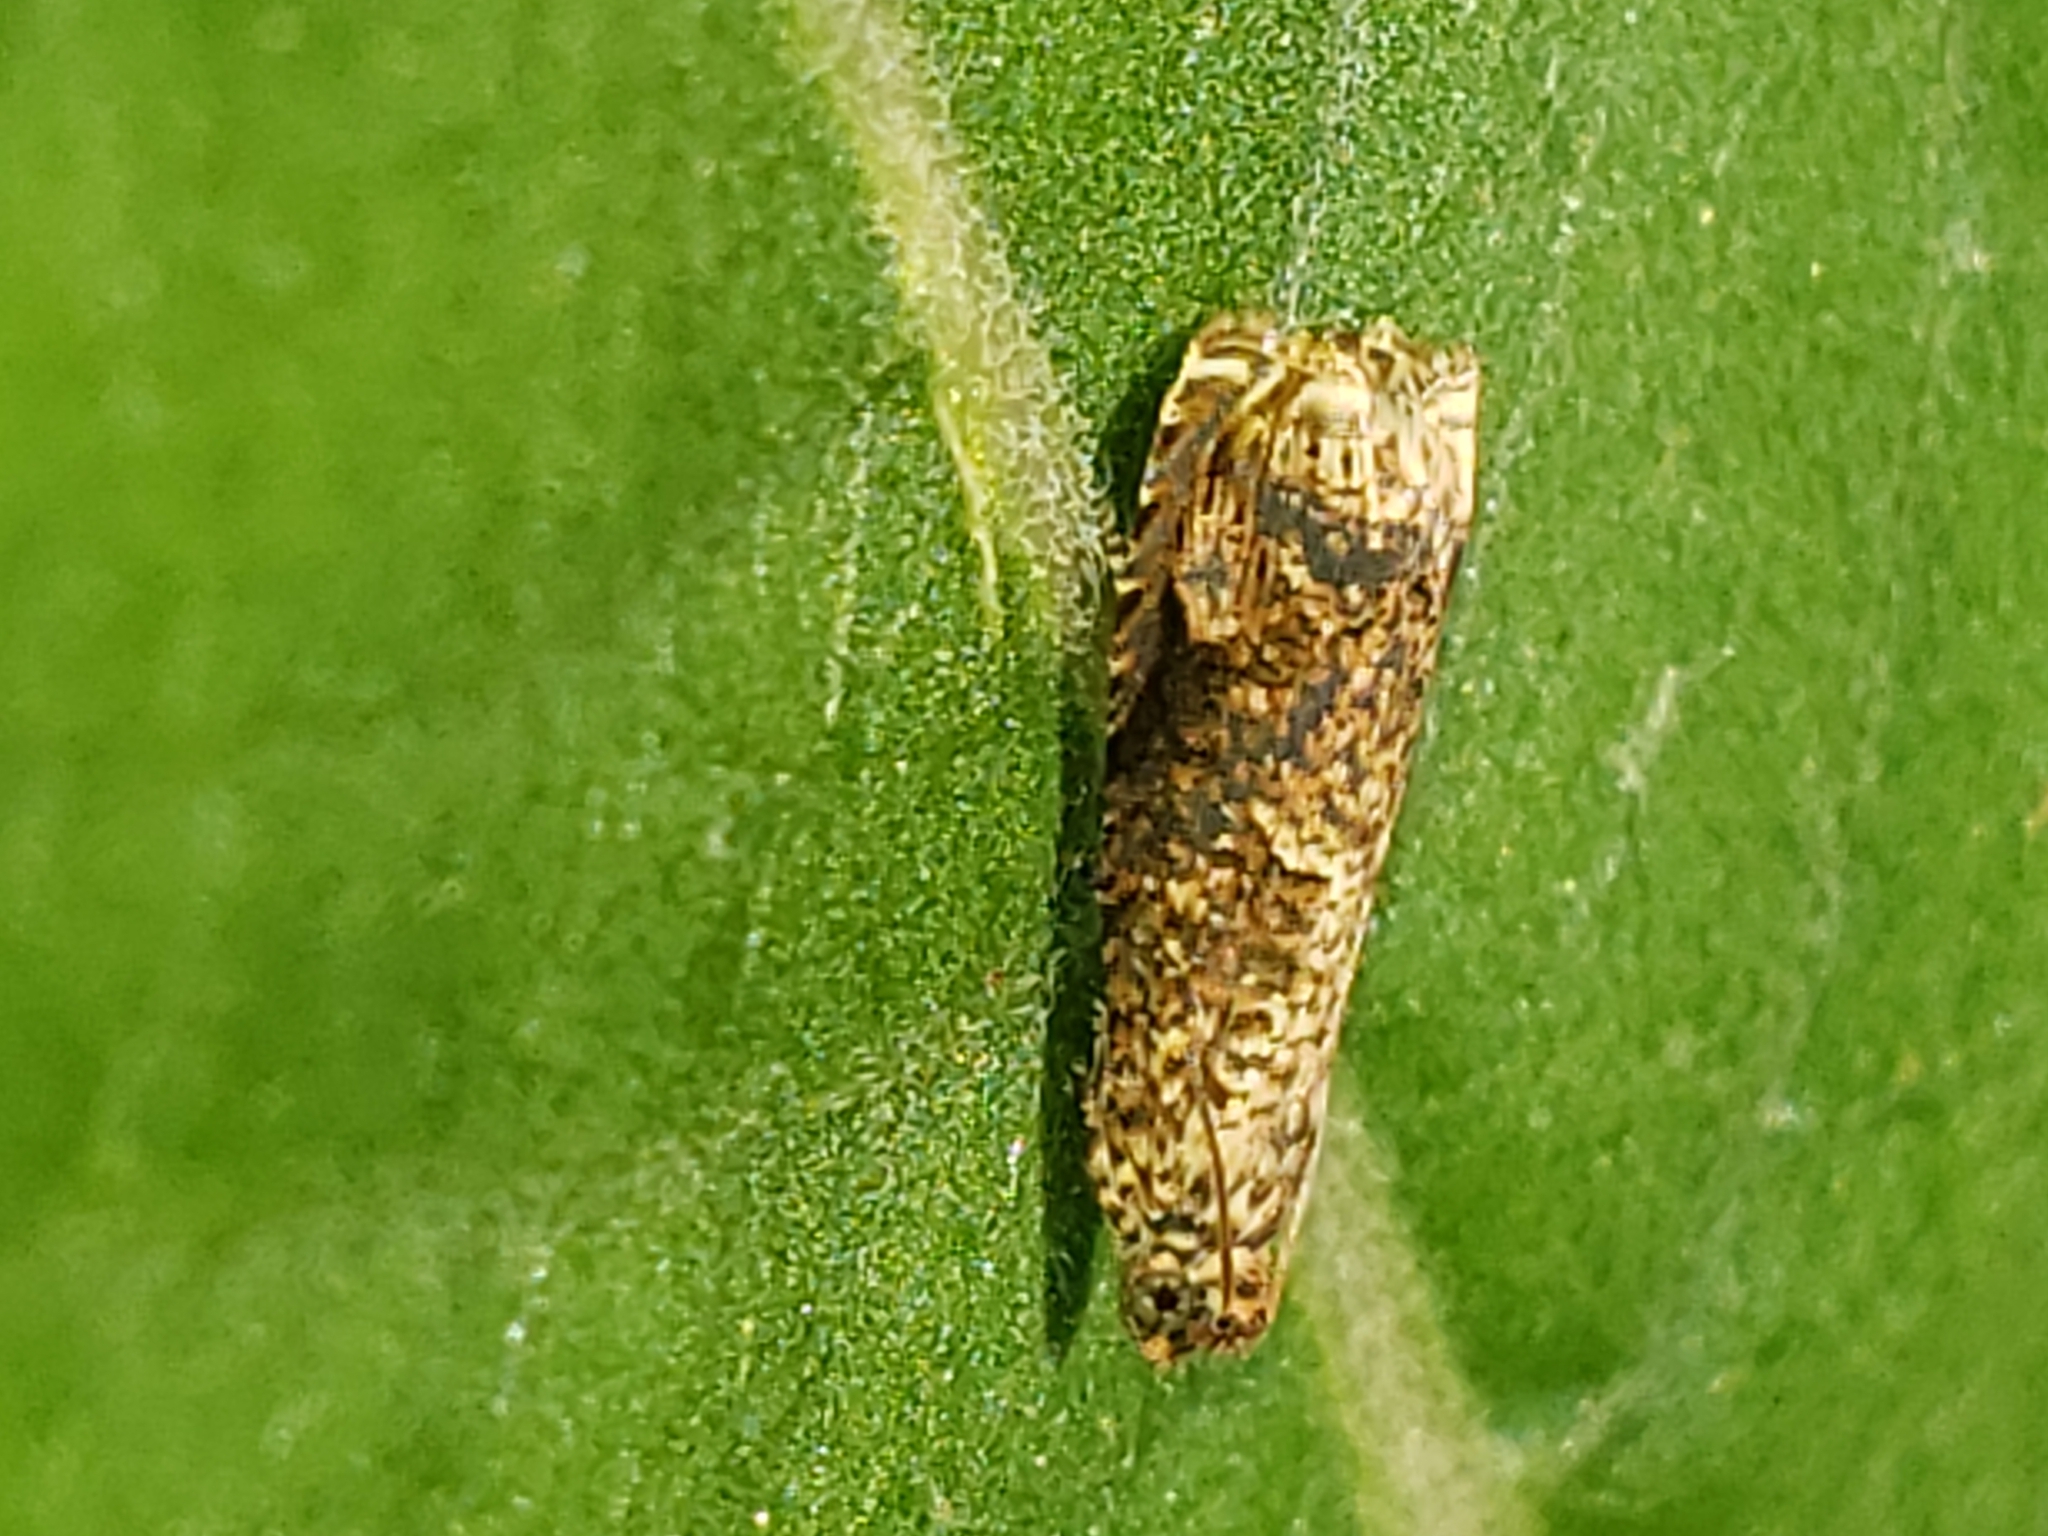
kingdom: Animalia
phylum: Arthropoda
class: Insecta
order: Lepidoptera
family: Tortricidae
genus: Episimus
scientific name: Episimus argutana
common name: Sumac leaftier moth
